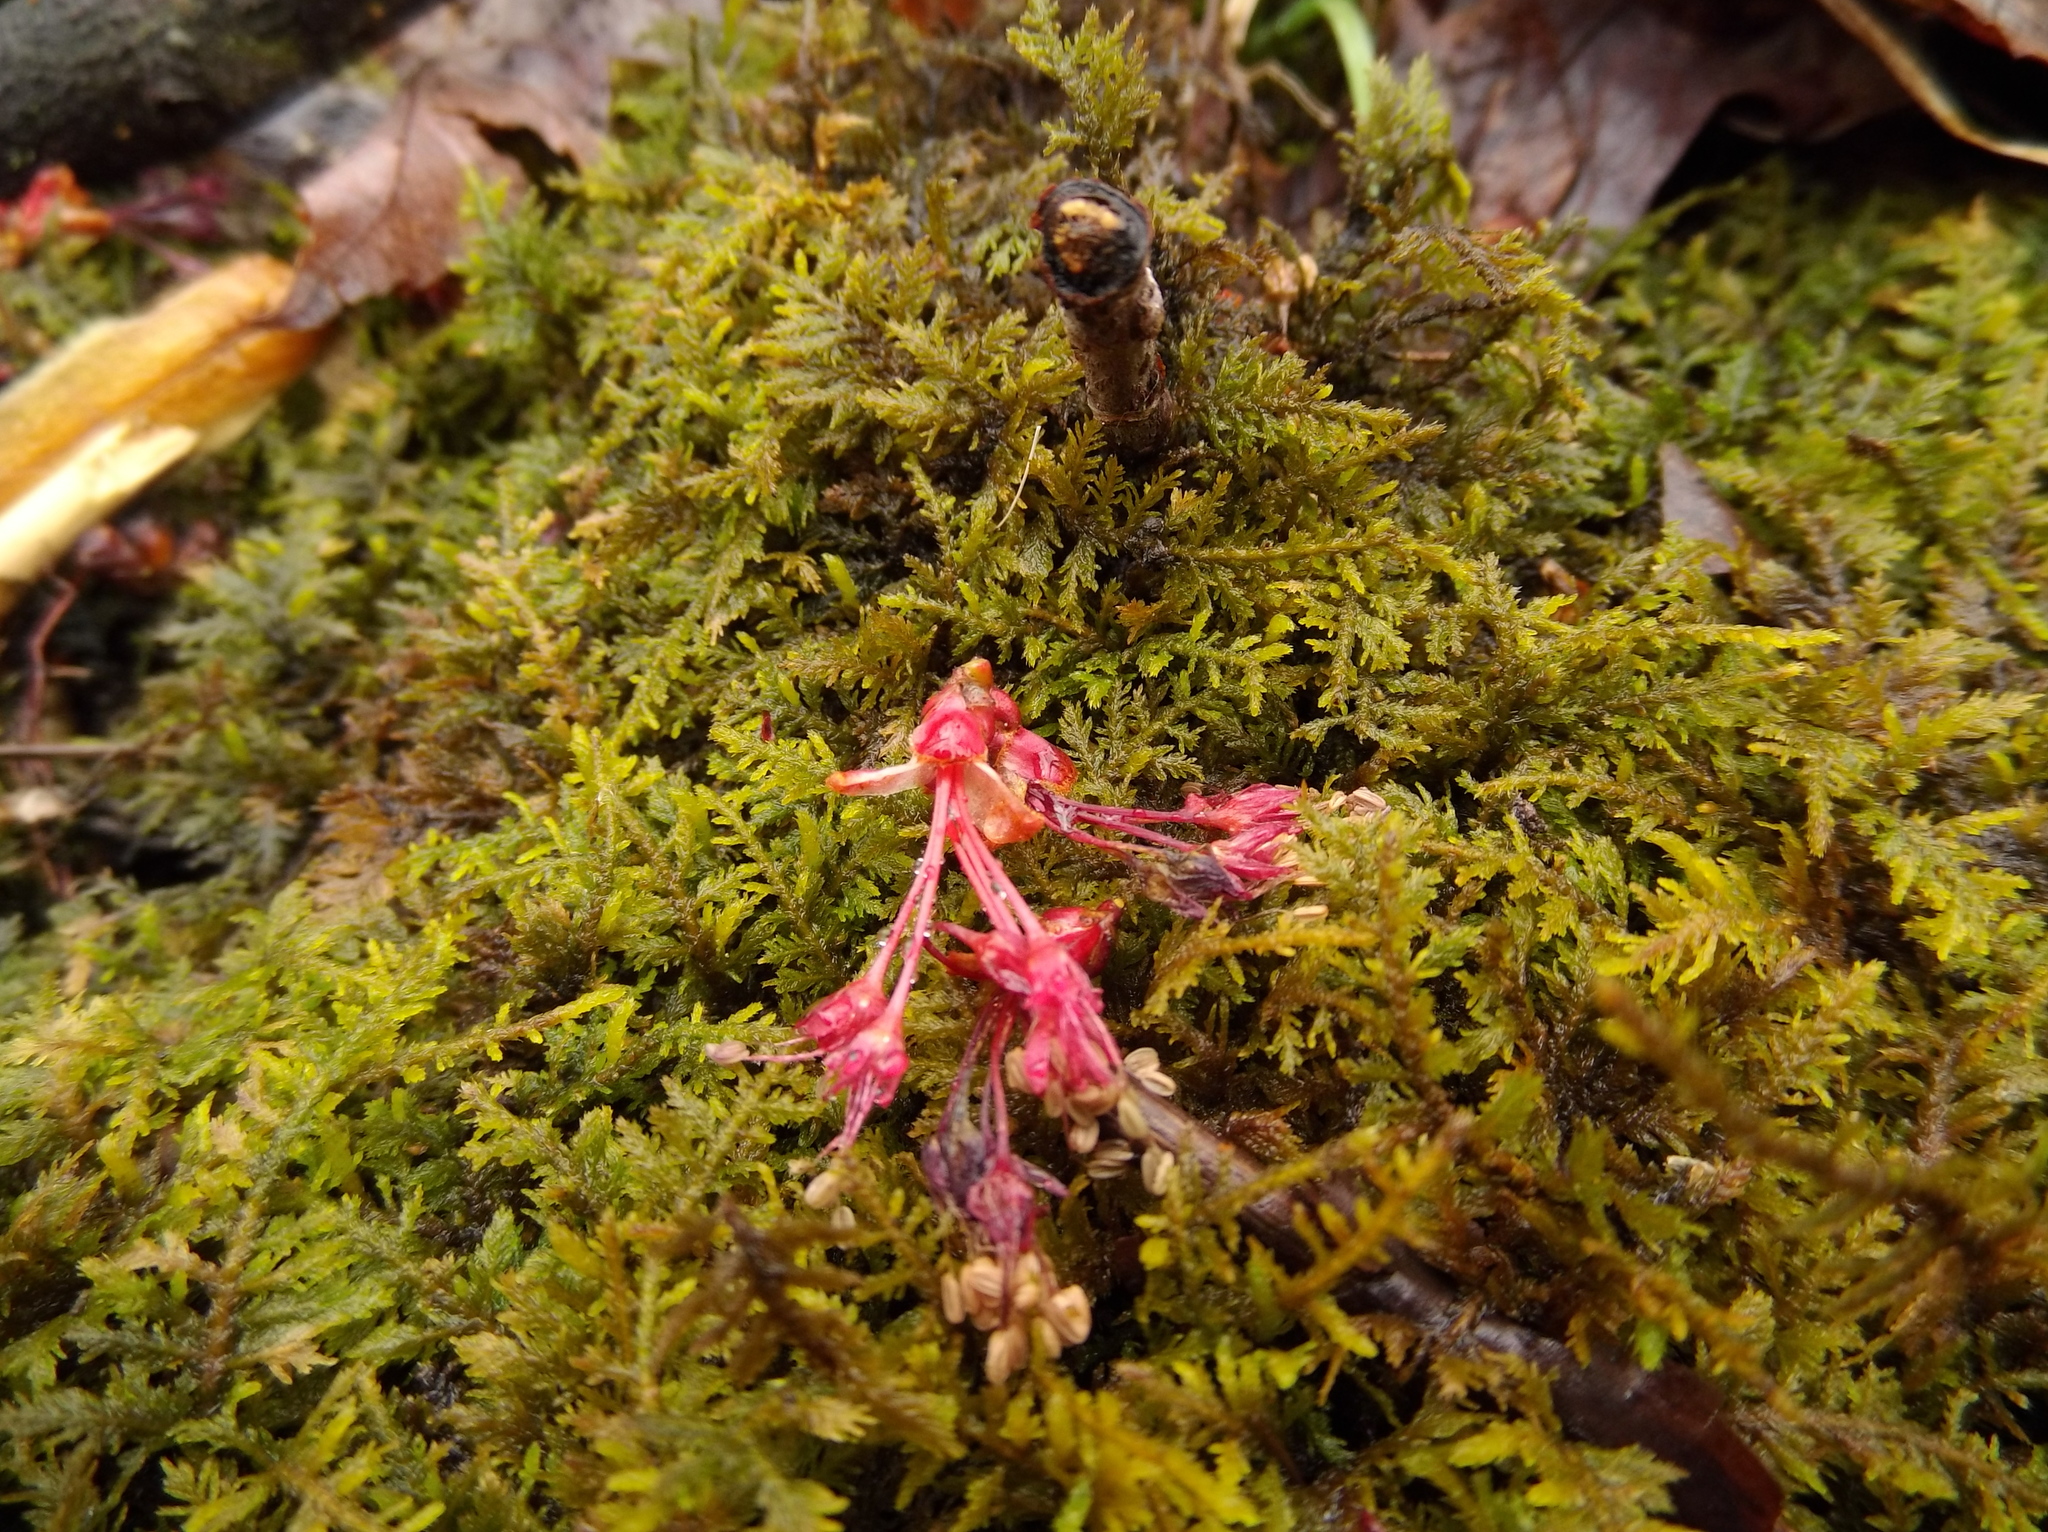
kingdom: Plantae
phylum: Tracheophyta
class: Magnoliopsida
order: Sapindales
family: Sapindaceae
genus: Acer
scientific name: Acer rubrum
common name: Red maple
